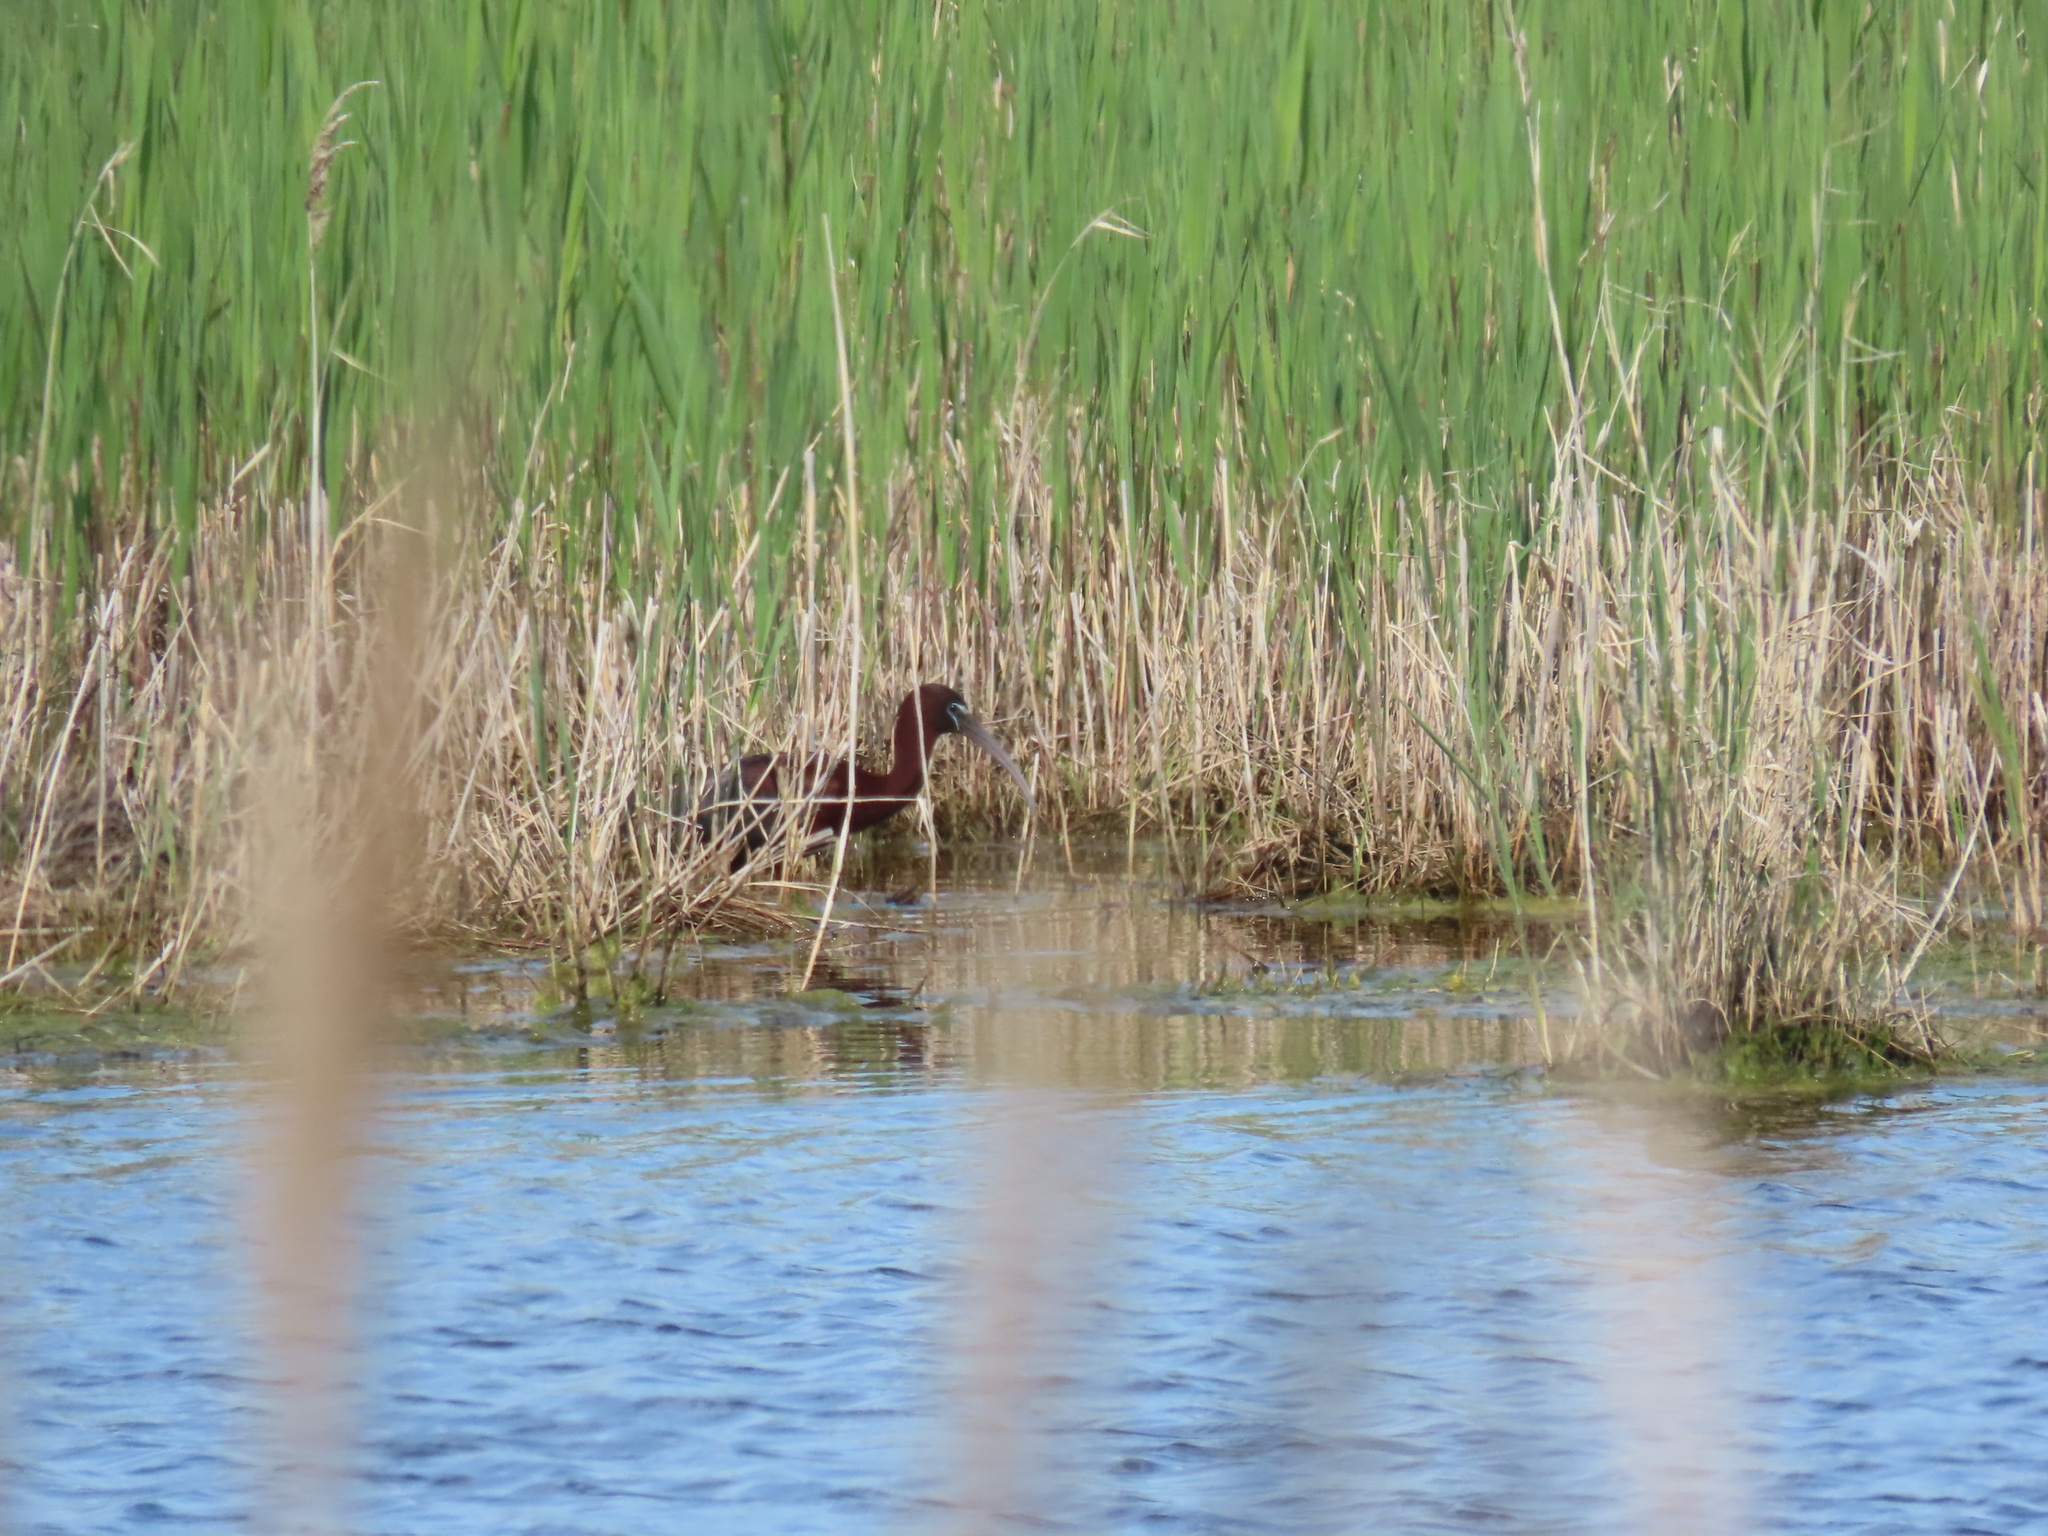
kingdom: Animalia
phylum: Chordata
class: Aves
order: Pelecaniformes
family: Threskiornithidae
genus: Plegadis
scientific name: Plegadis falcinellus
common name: Glossy ibis
